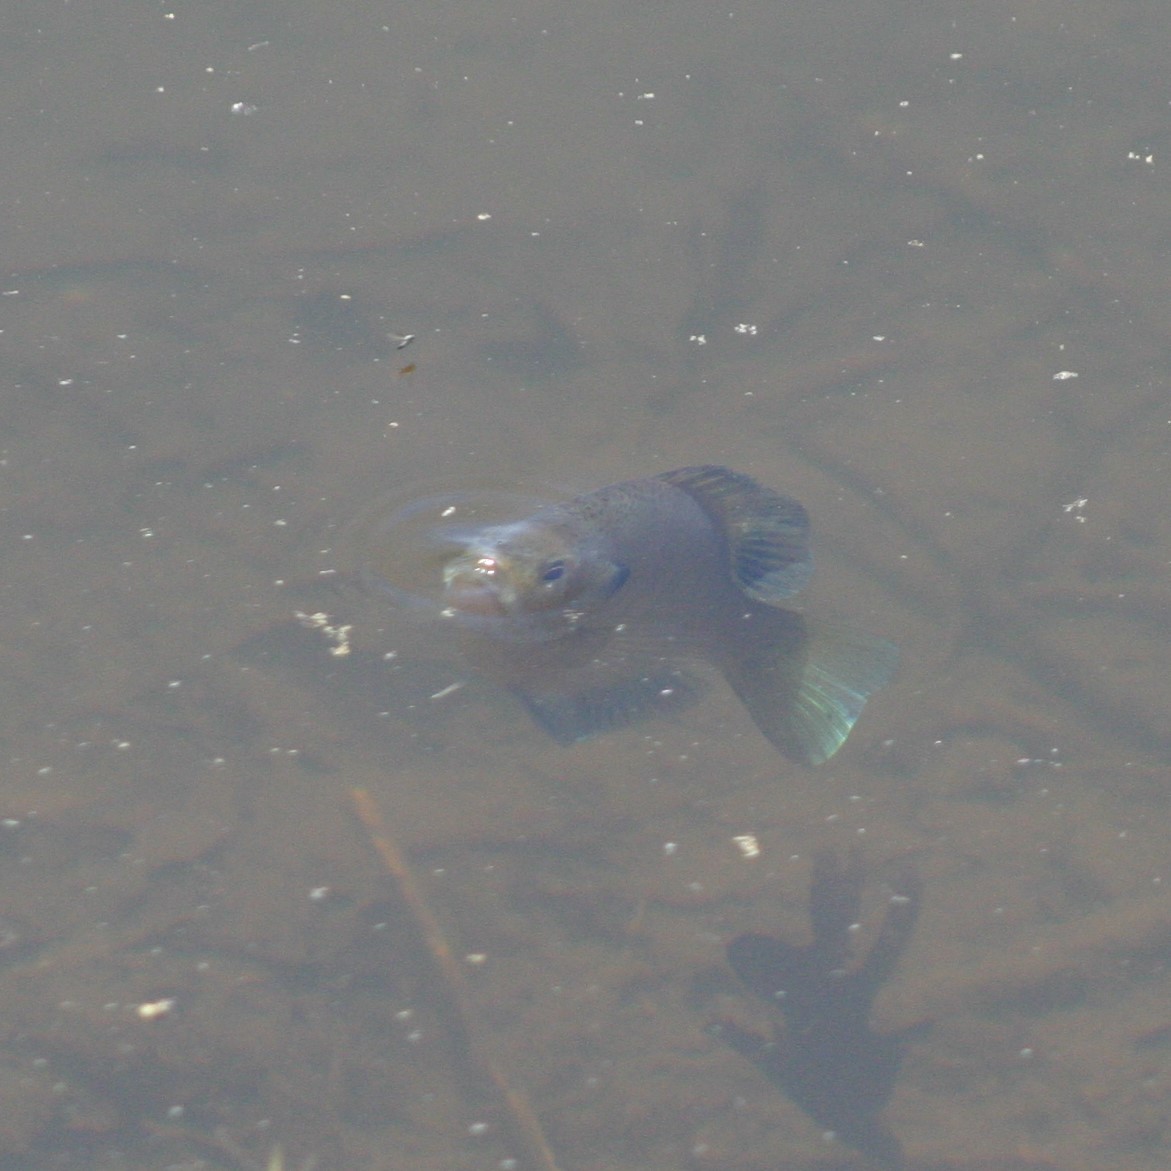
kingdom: Animalia
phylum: Chordata
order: Perciformes
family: Centrarchidae
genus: Lepomis
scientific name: Lepomis macrochirus
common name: Bluegill
